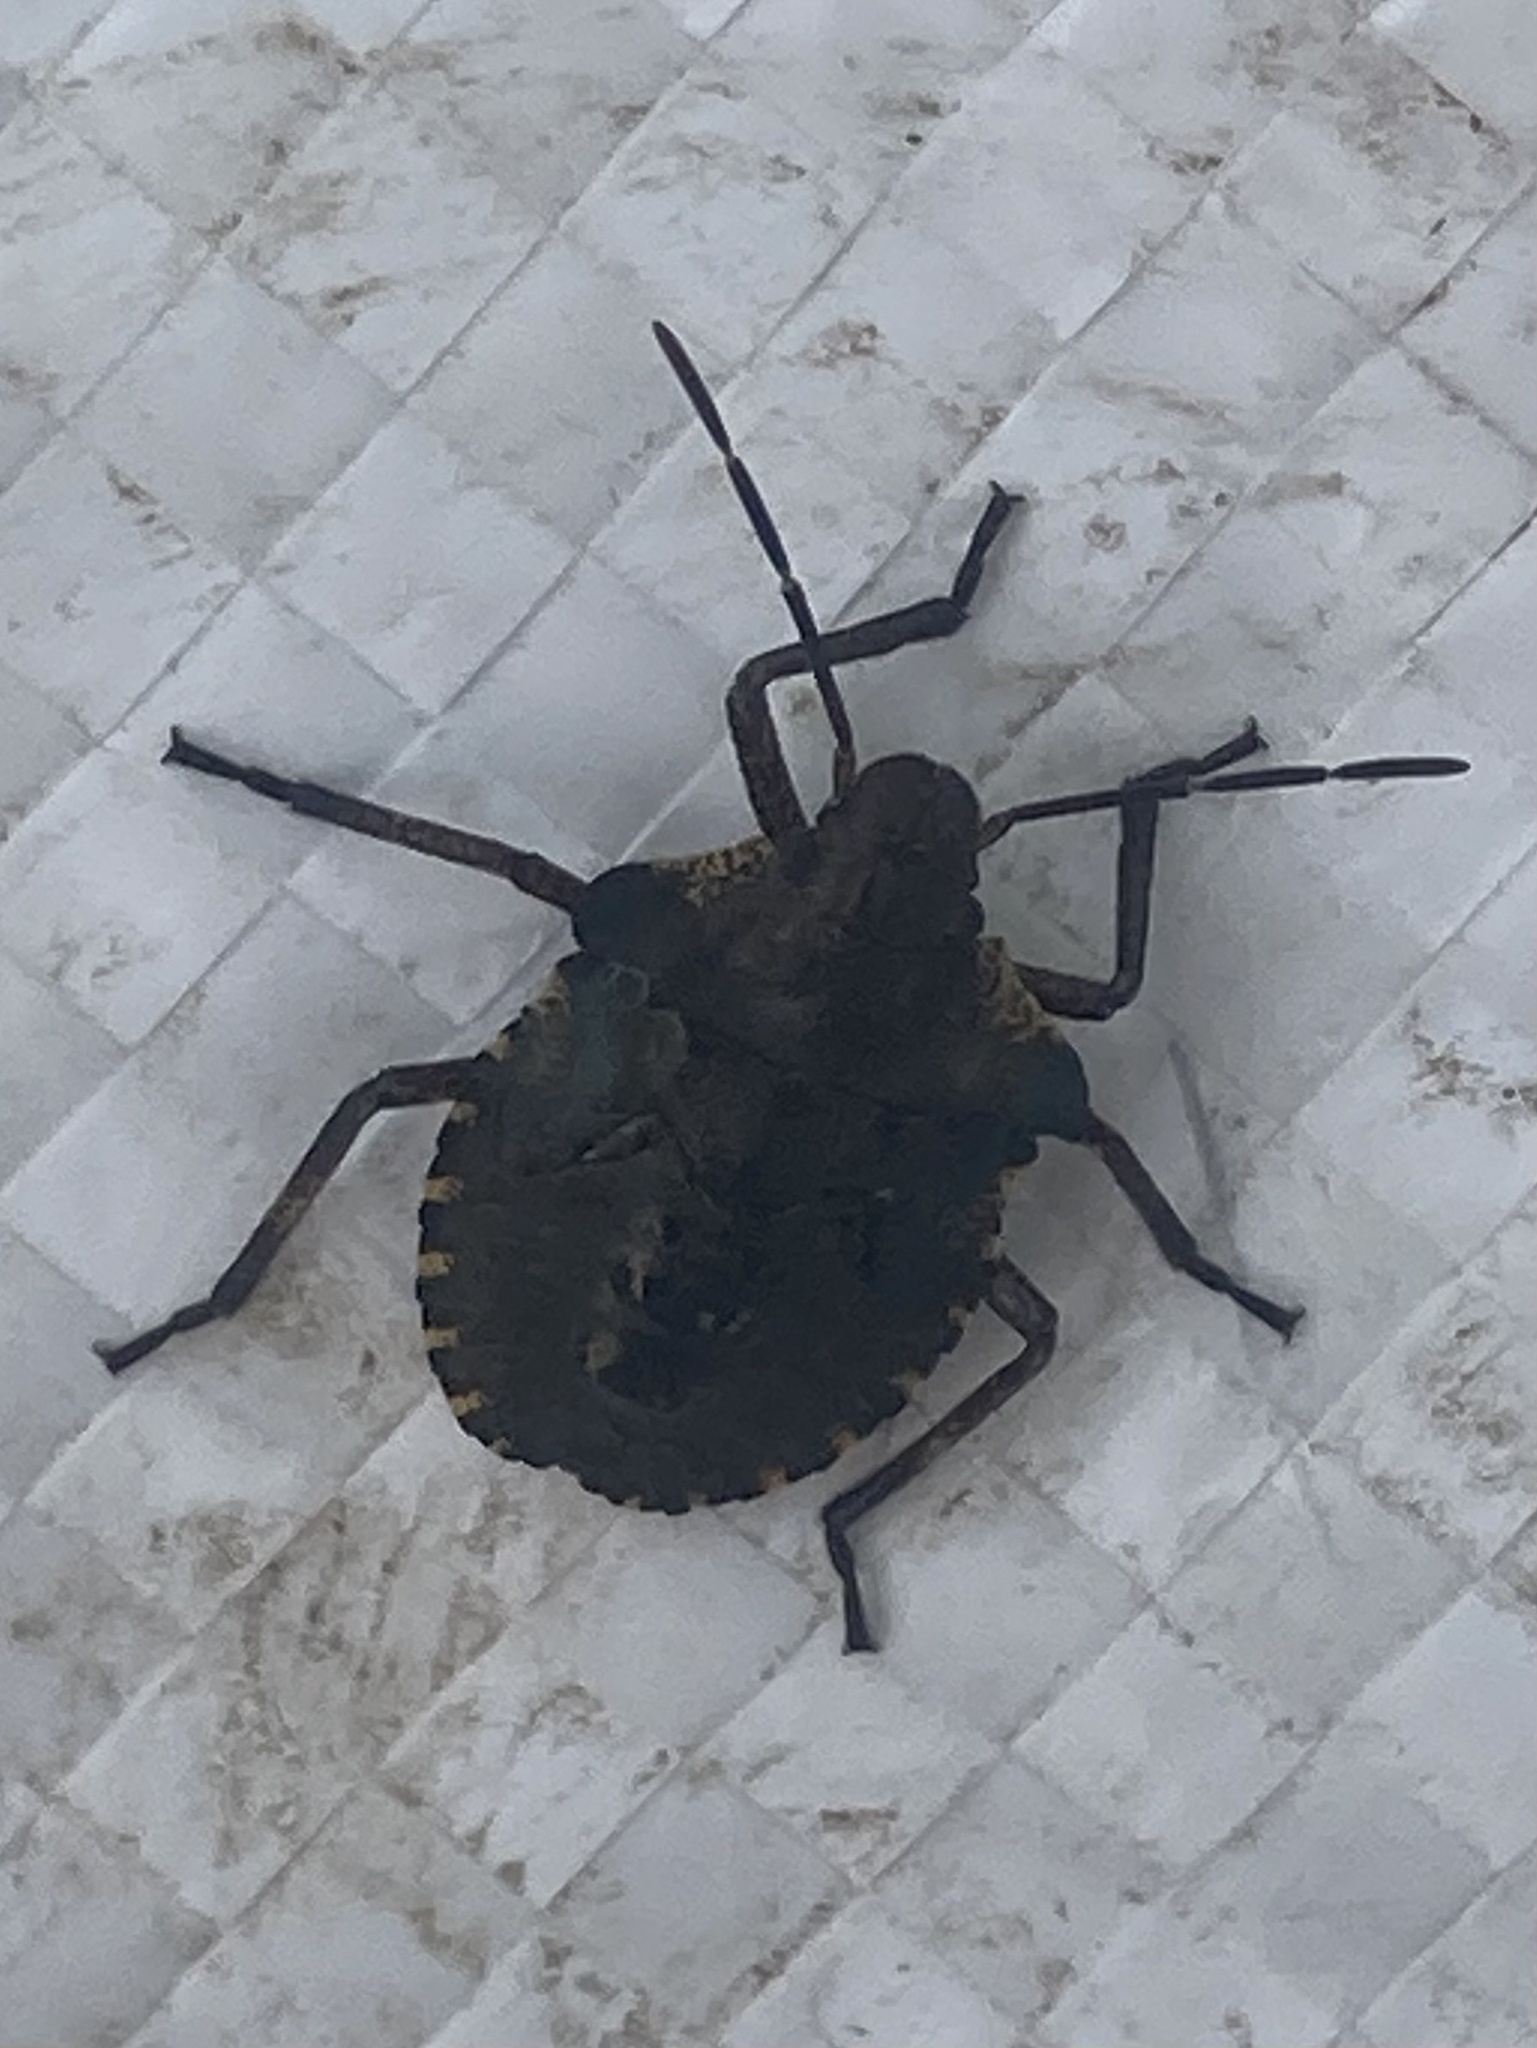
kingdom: Animalia
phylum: Arthropoda
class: Insecta
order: Hemiptera
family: Pentatomidae
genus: Pentatoma
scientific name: Pentatoma rufipes
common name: Forest bug
